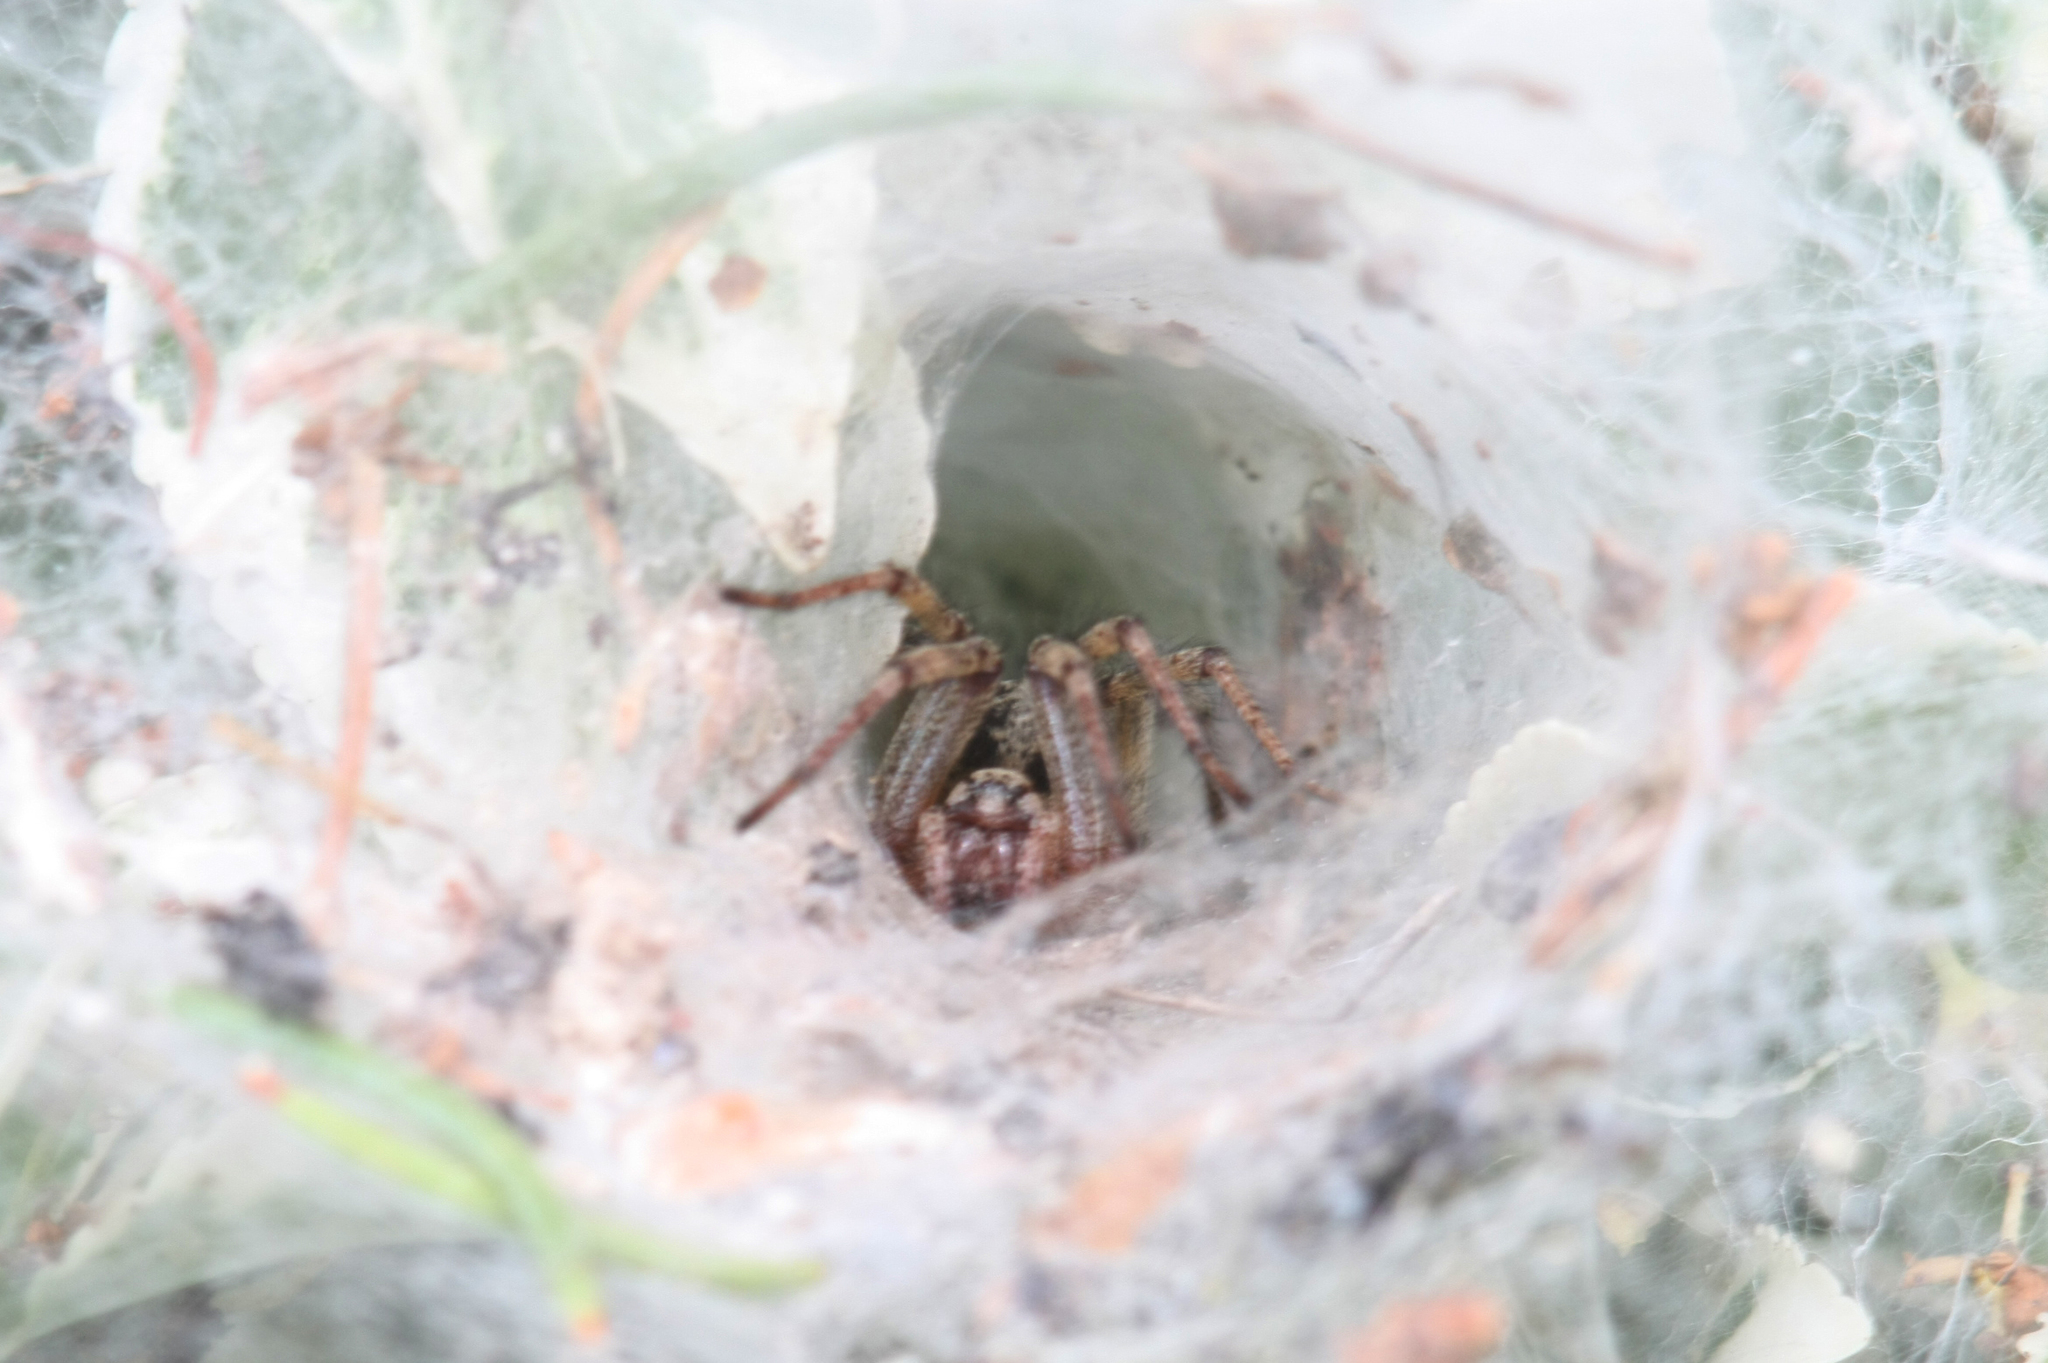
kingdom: Animalia
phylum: Arthropoda
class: Arachnida
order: Araneae
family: Agelenidae
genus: Agelena
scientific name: Agelena labyrinthica
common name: Labyrinth spider
